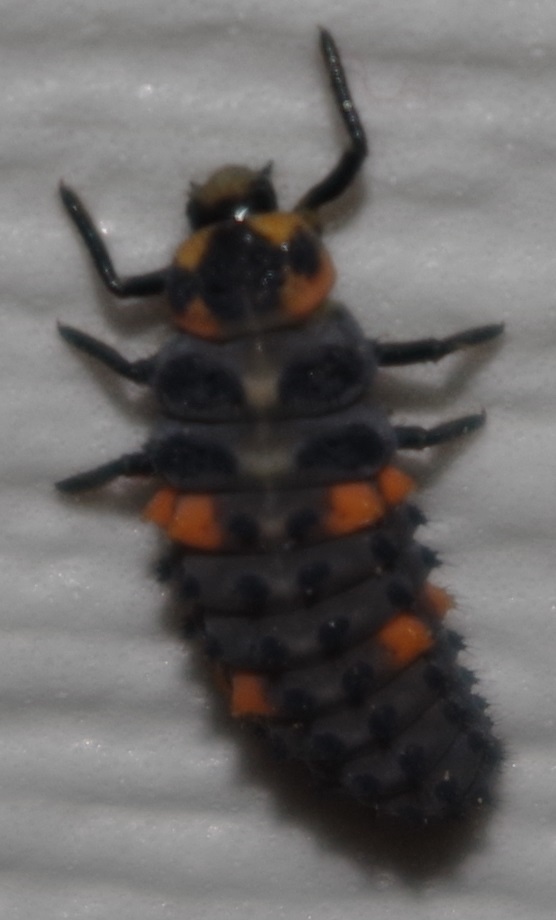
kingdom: Animalia
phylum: Arthropoda
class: Insecta
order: Coleoptera
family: Coccinellidae
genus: Coccinella
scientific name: Coccinella septempunctata
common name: Sevenspotted lady beetle
